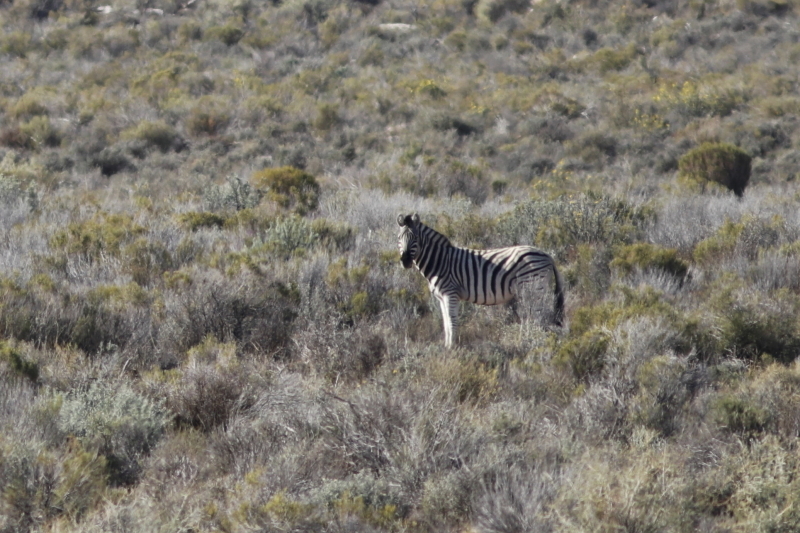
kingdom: Animalia
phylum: Chordata
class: Mammalia
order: Perissodactyla
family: Equidae
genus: Equus
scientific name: Equus quagga
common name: Plains zebra
